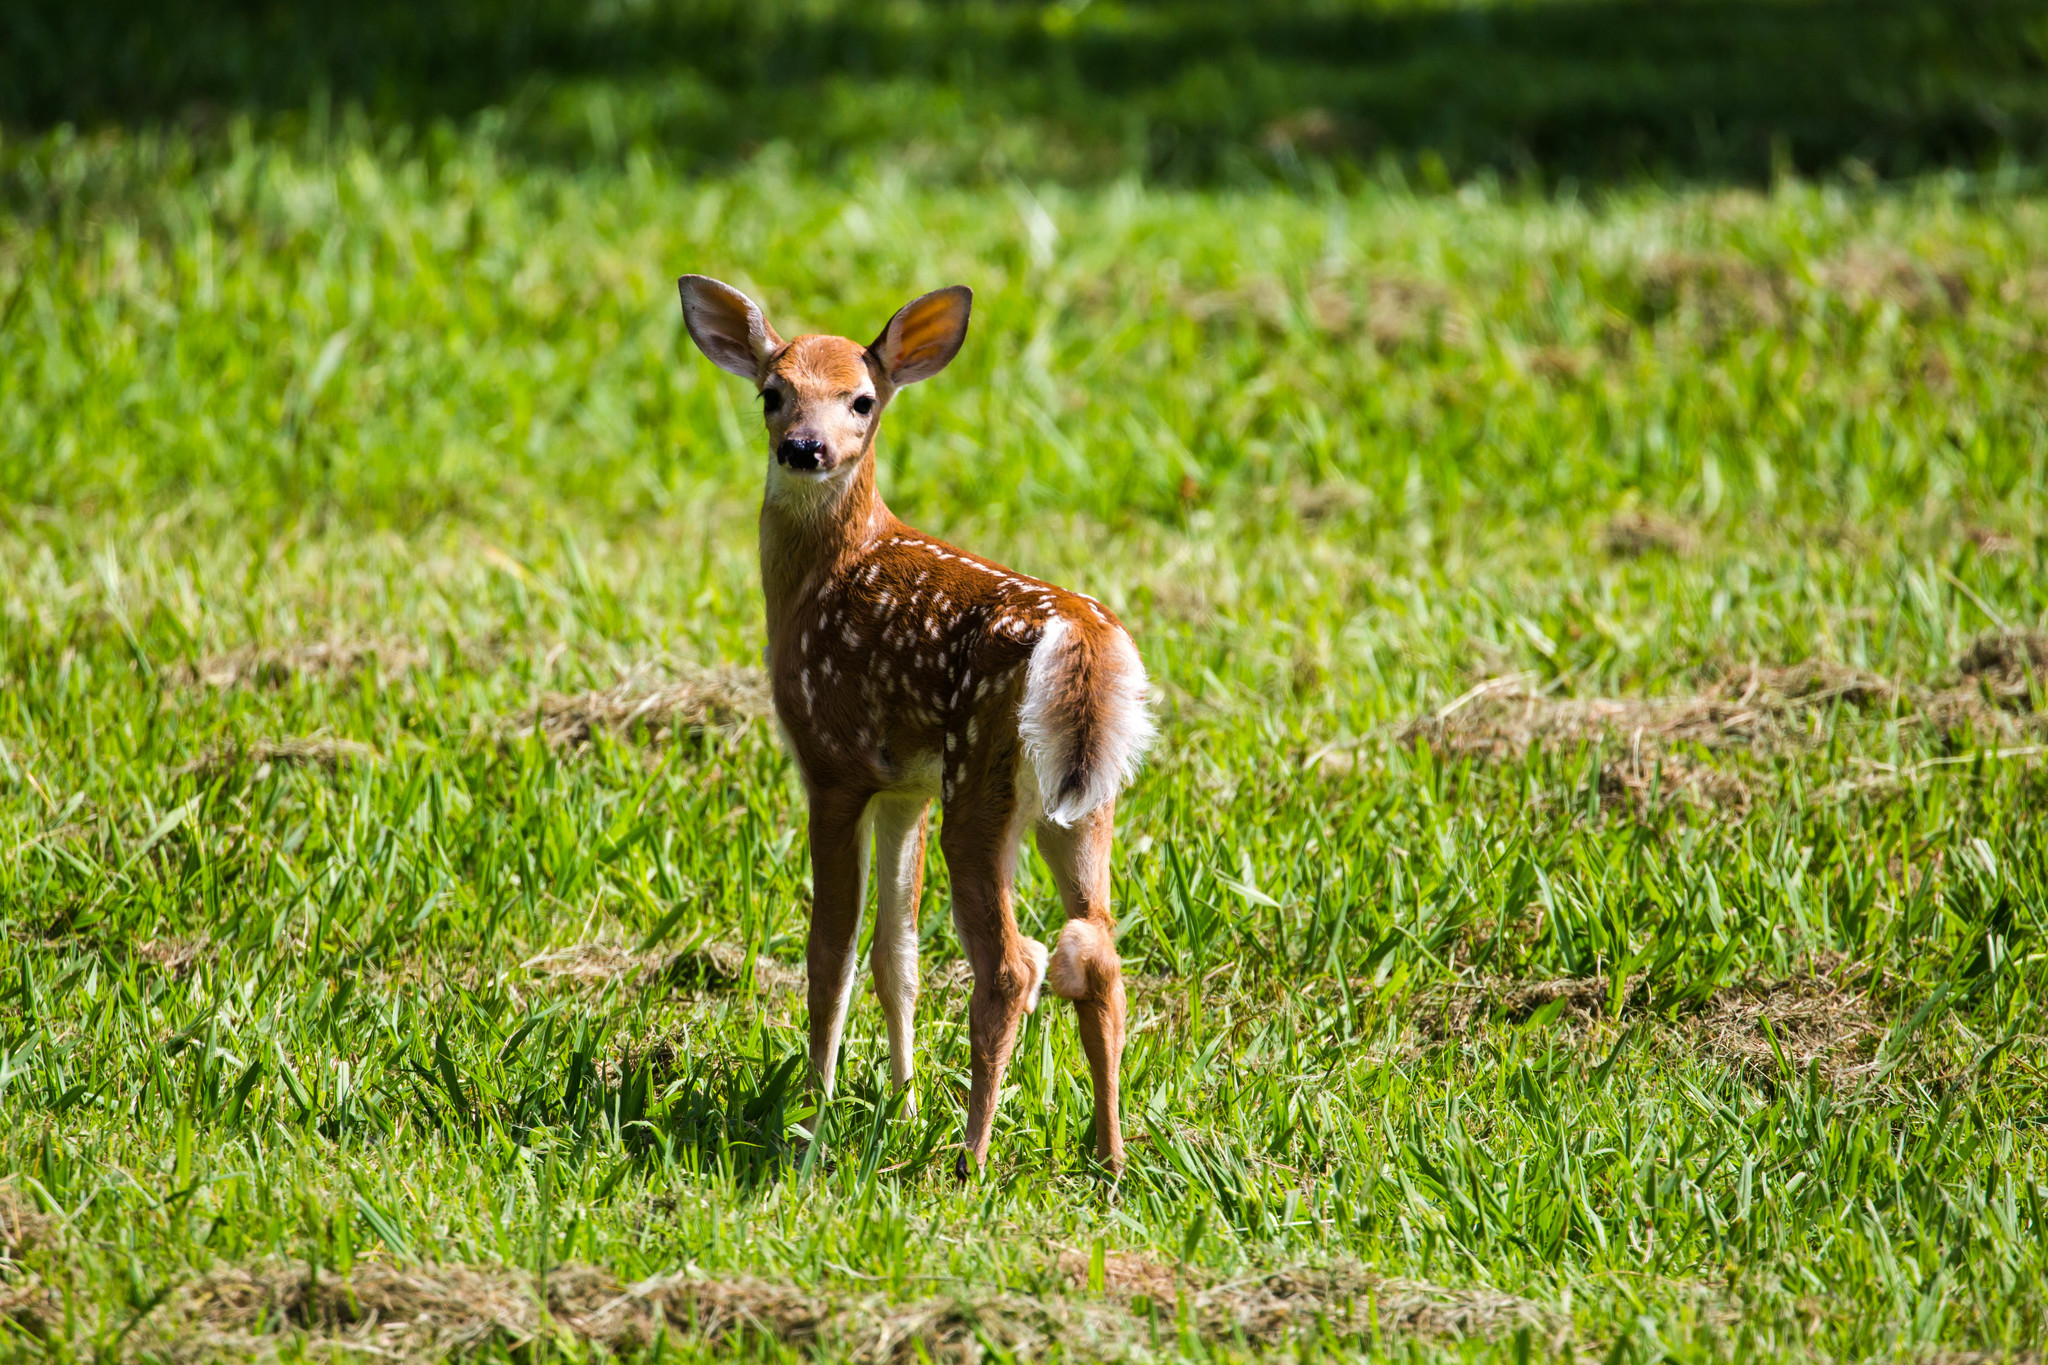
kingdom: Animalia
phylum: Chordata
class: Mammalia
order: Artiodactyla
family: Cervidae
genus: Odocoileus
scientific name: Odocoileus virginianus
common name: White-tailed deer
